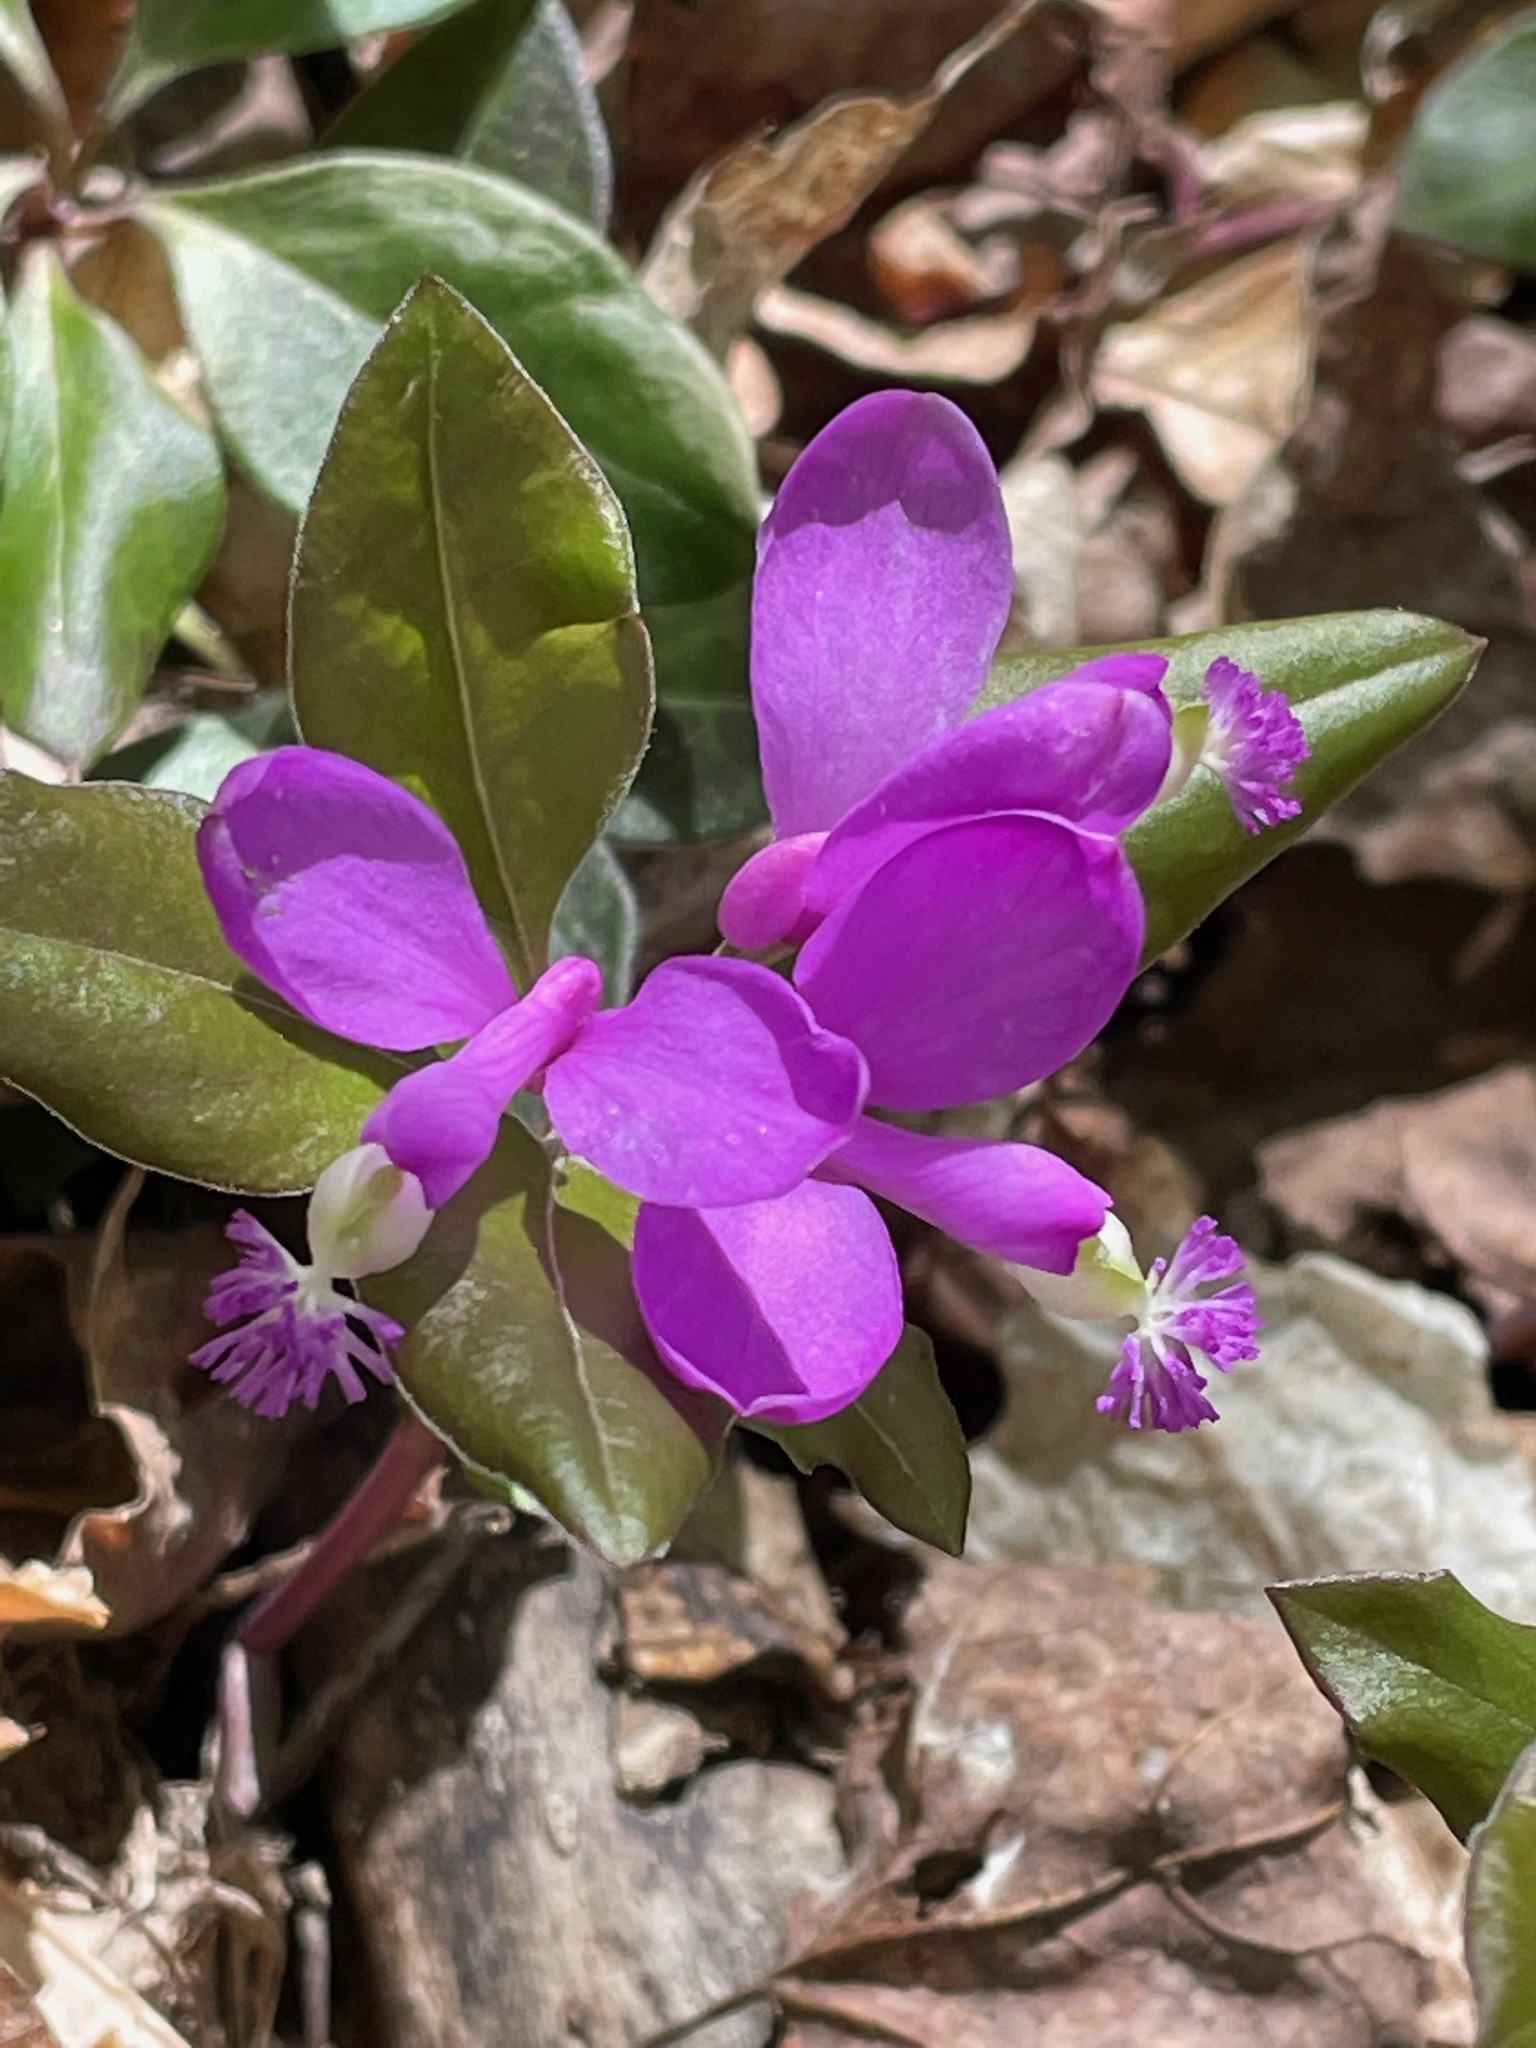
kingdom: Plantae
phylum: Tracheophyta
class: Magnoliopsida
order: Fabales
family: Polygalaceae
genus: Polygaloides
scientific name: Polygaloides paucifolia
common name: Bird-on-the-wing
